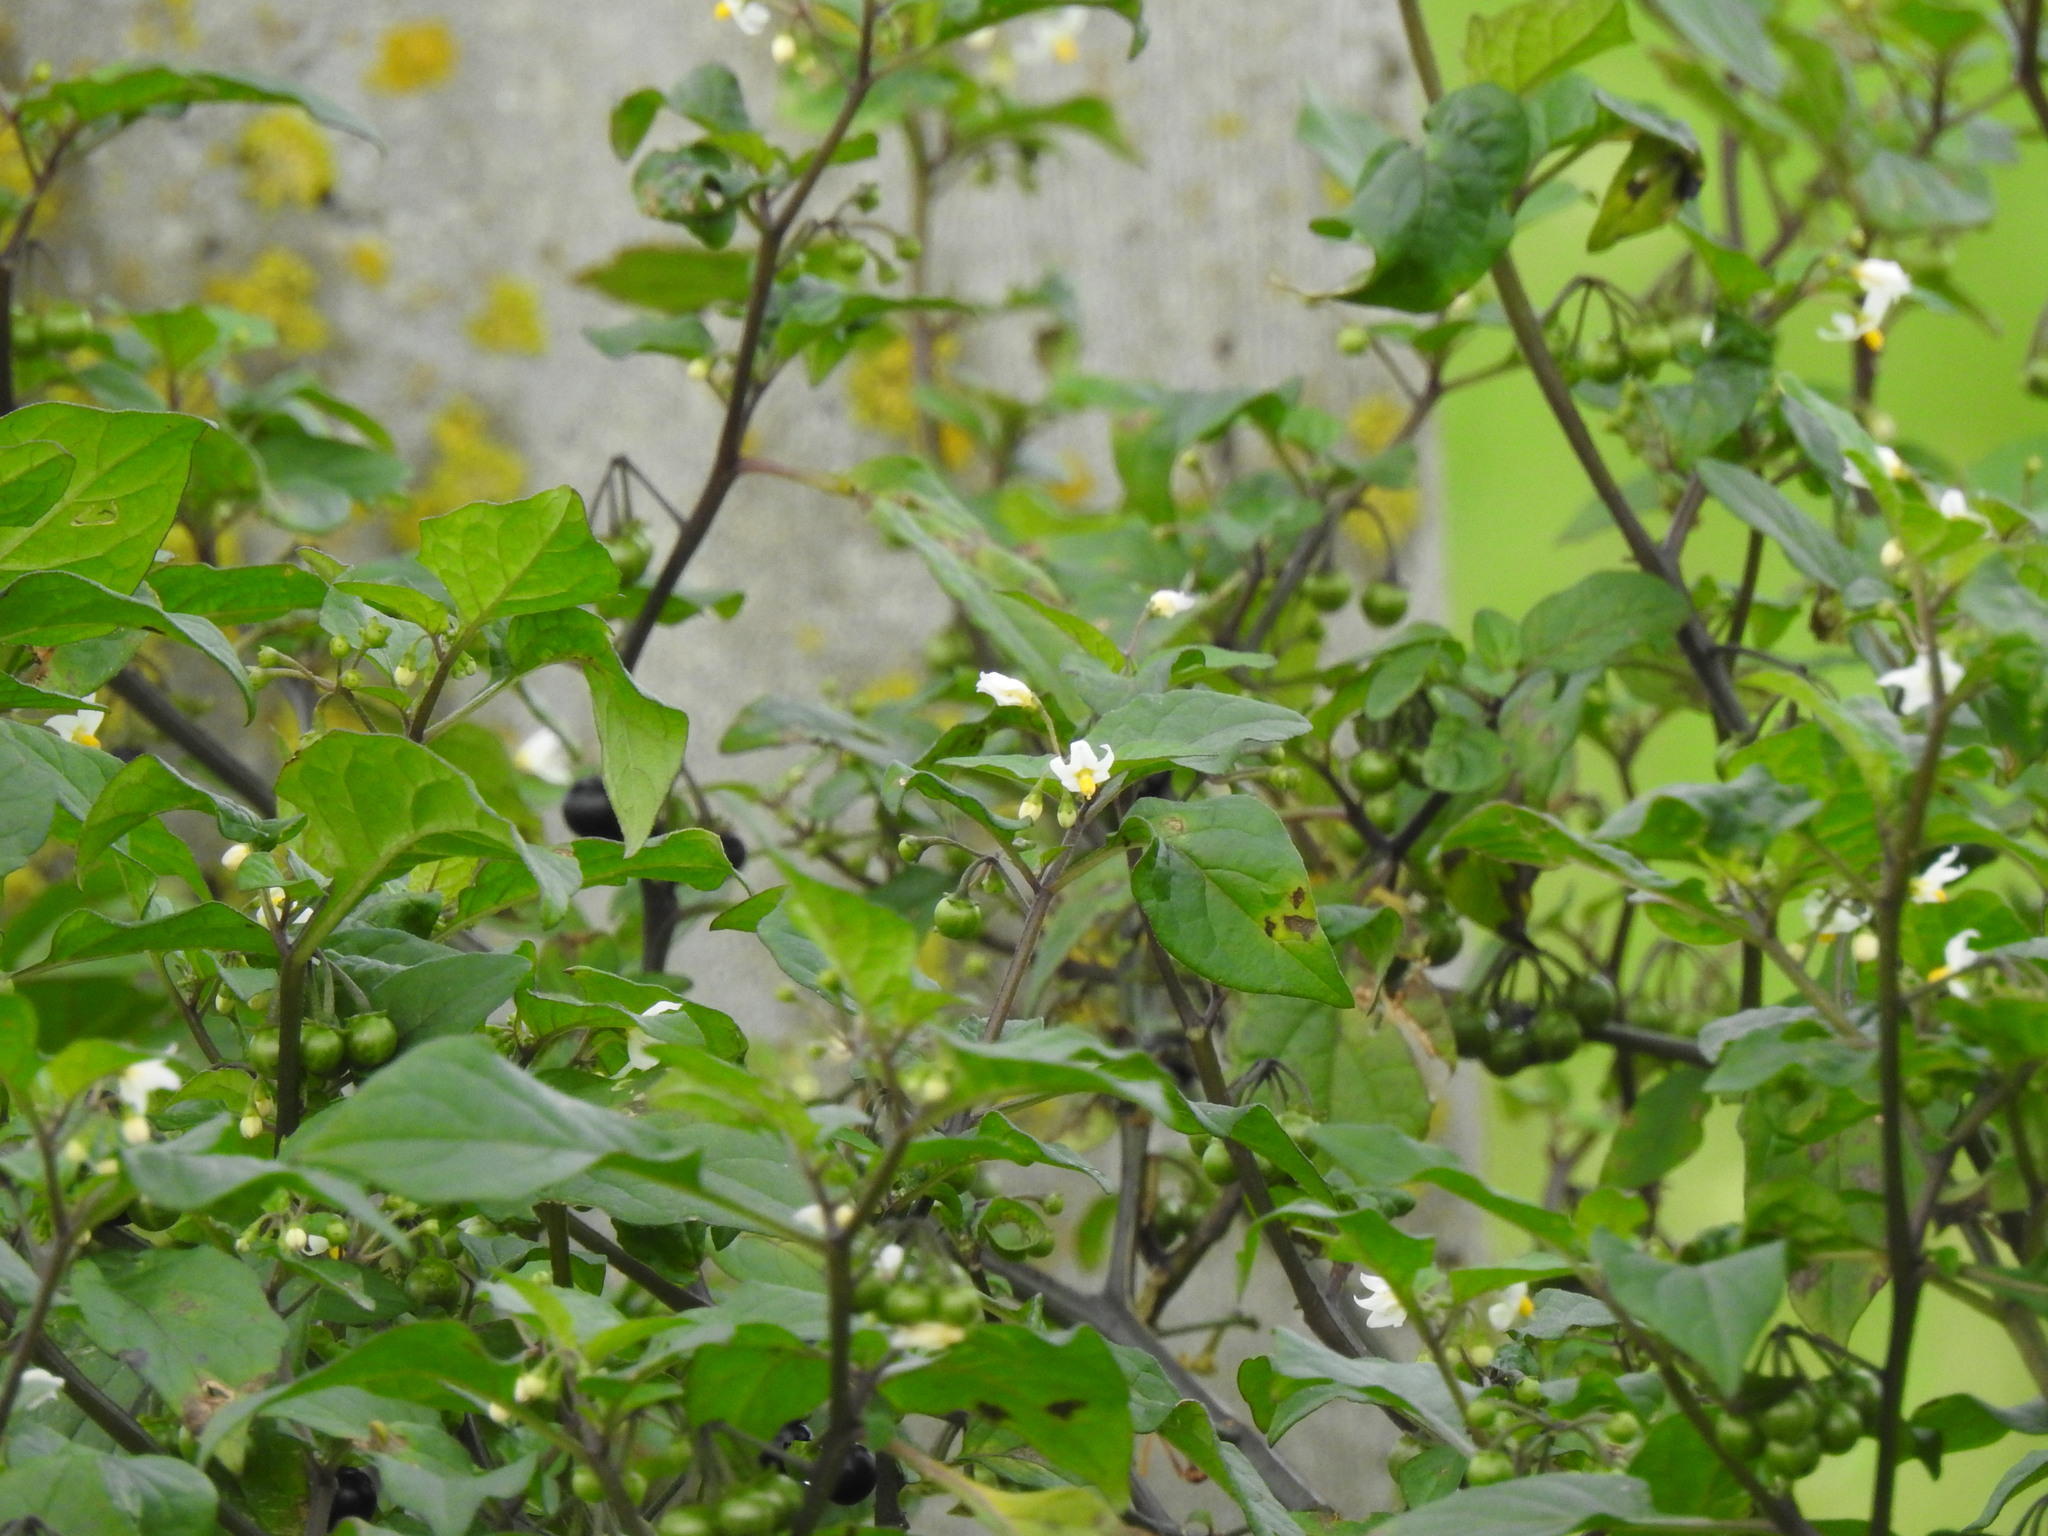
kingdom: Plantae
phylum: Tracheophyta
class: Magnoliopsida
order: Solanales
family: Solanaceae
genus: Solanum
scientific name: Solanum nigrum
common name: Black nightshade
